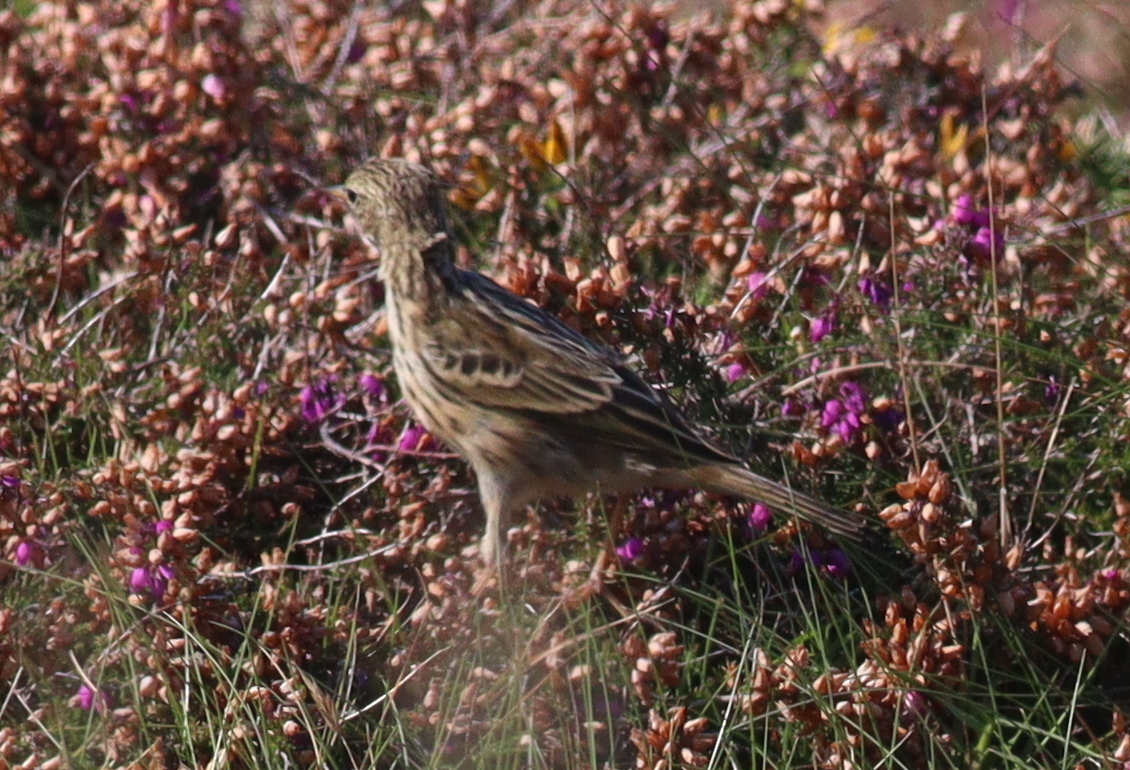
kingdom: Animalia
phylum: Chordata
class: Aves
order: Passeriformes
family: Motacillidae
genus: Anthus
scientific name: Anthus pratensis
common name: Meadow pipit
